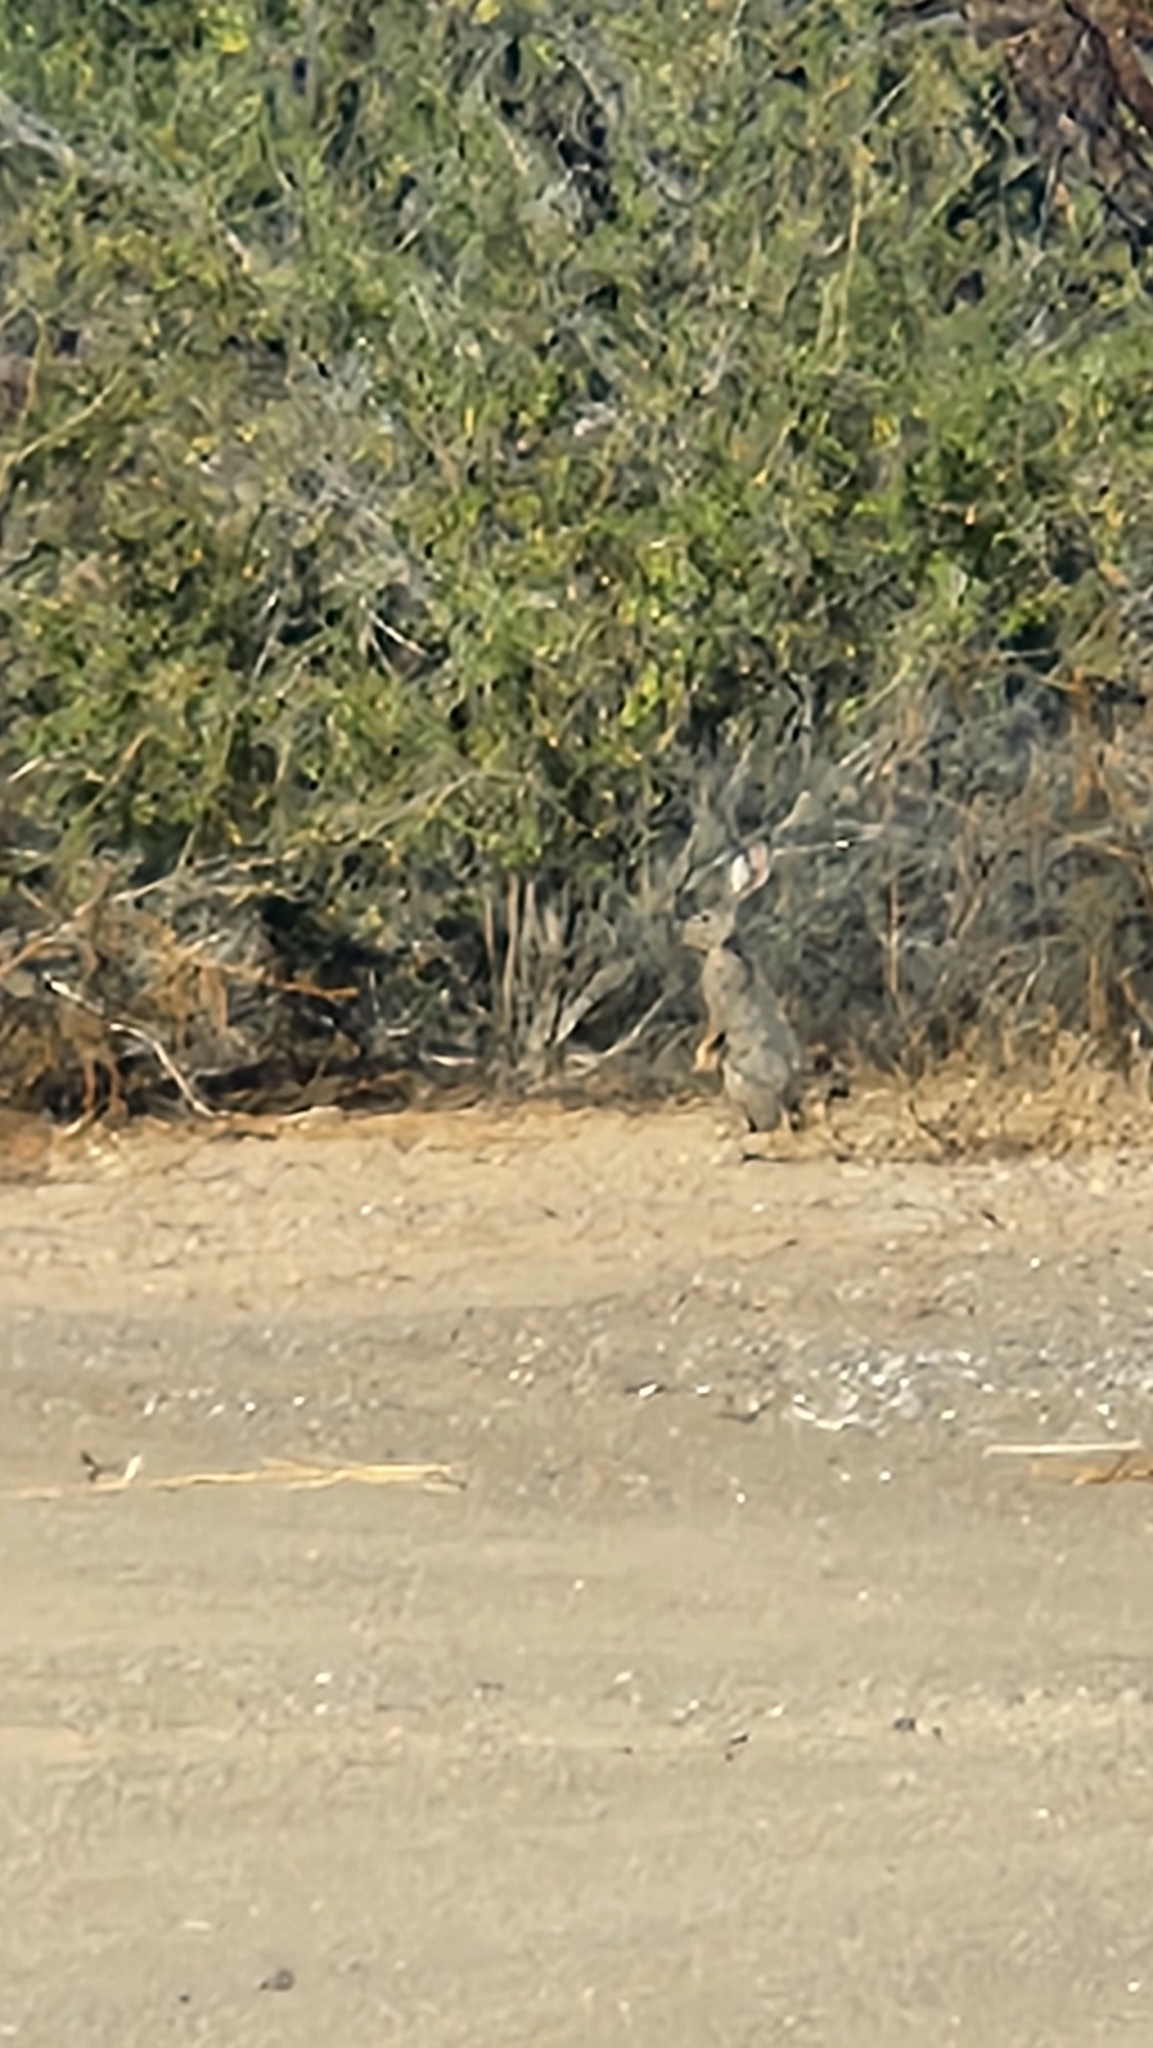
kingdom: Animalia
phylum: Chordata
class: Mammalia
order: Lagomorpha
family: Leporidae
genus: Lepus
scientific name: Lepus californicus
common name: Black-tailed jackrabbit
